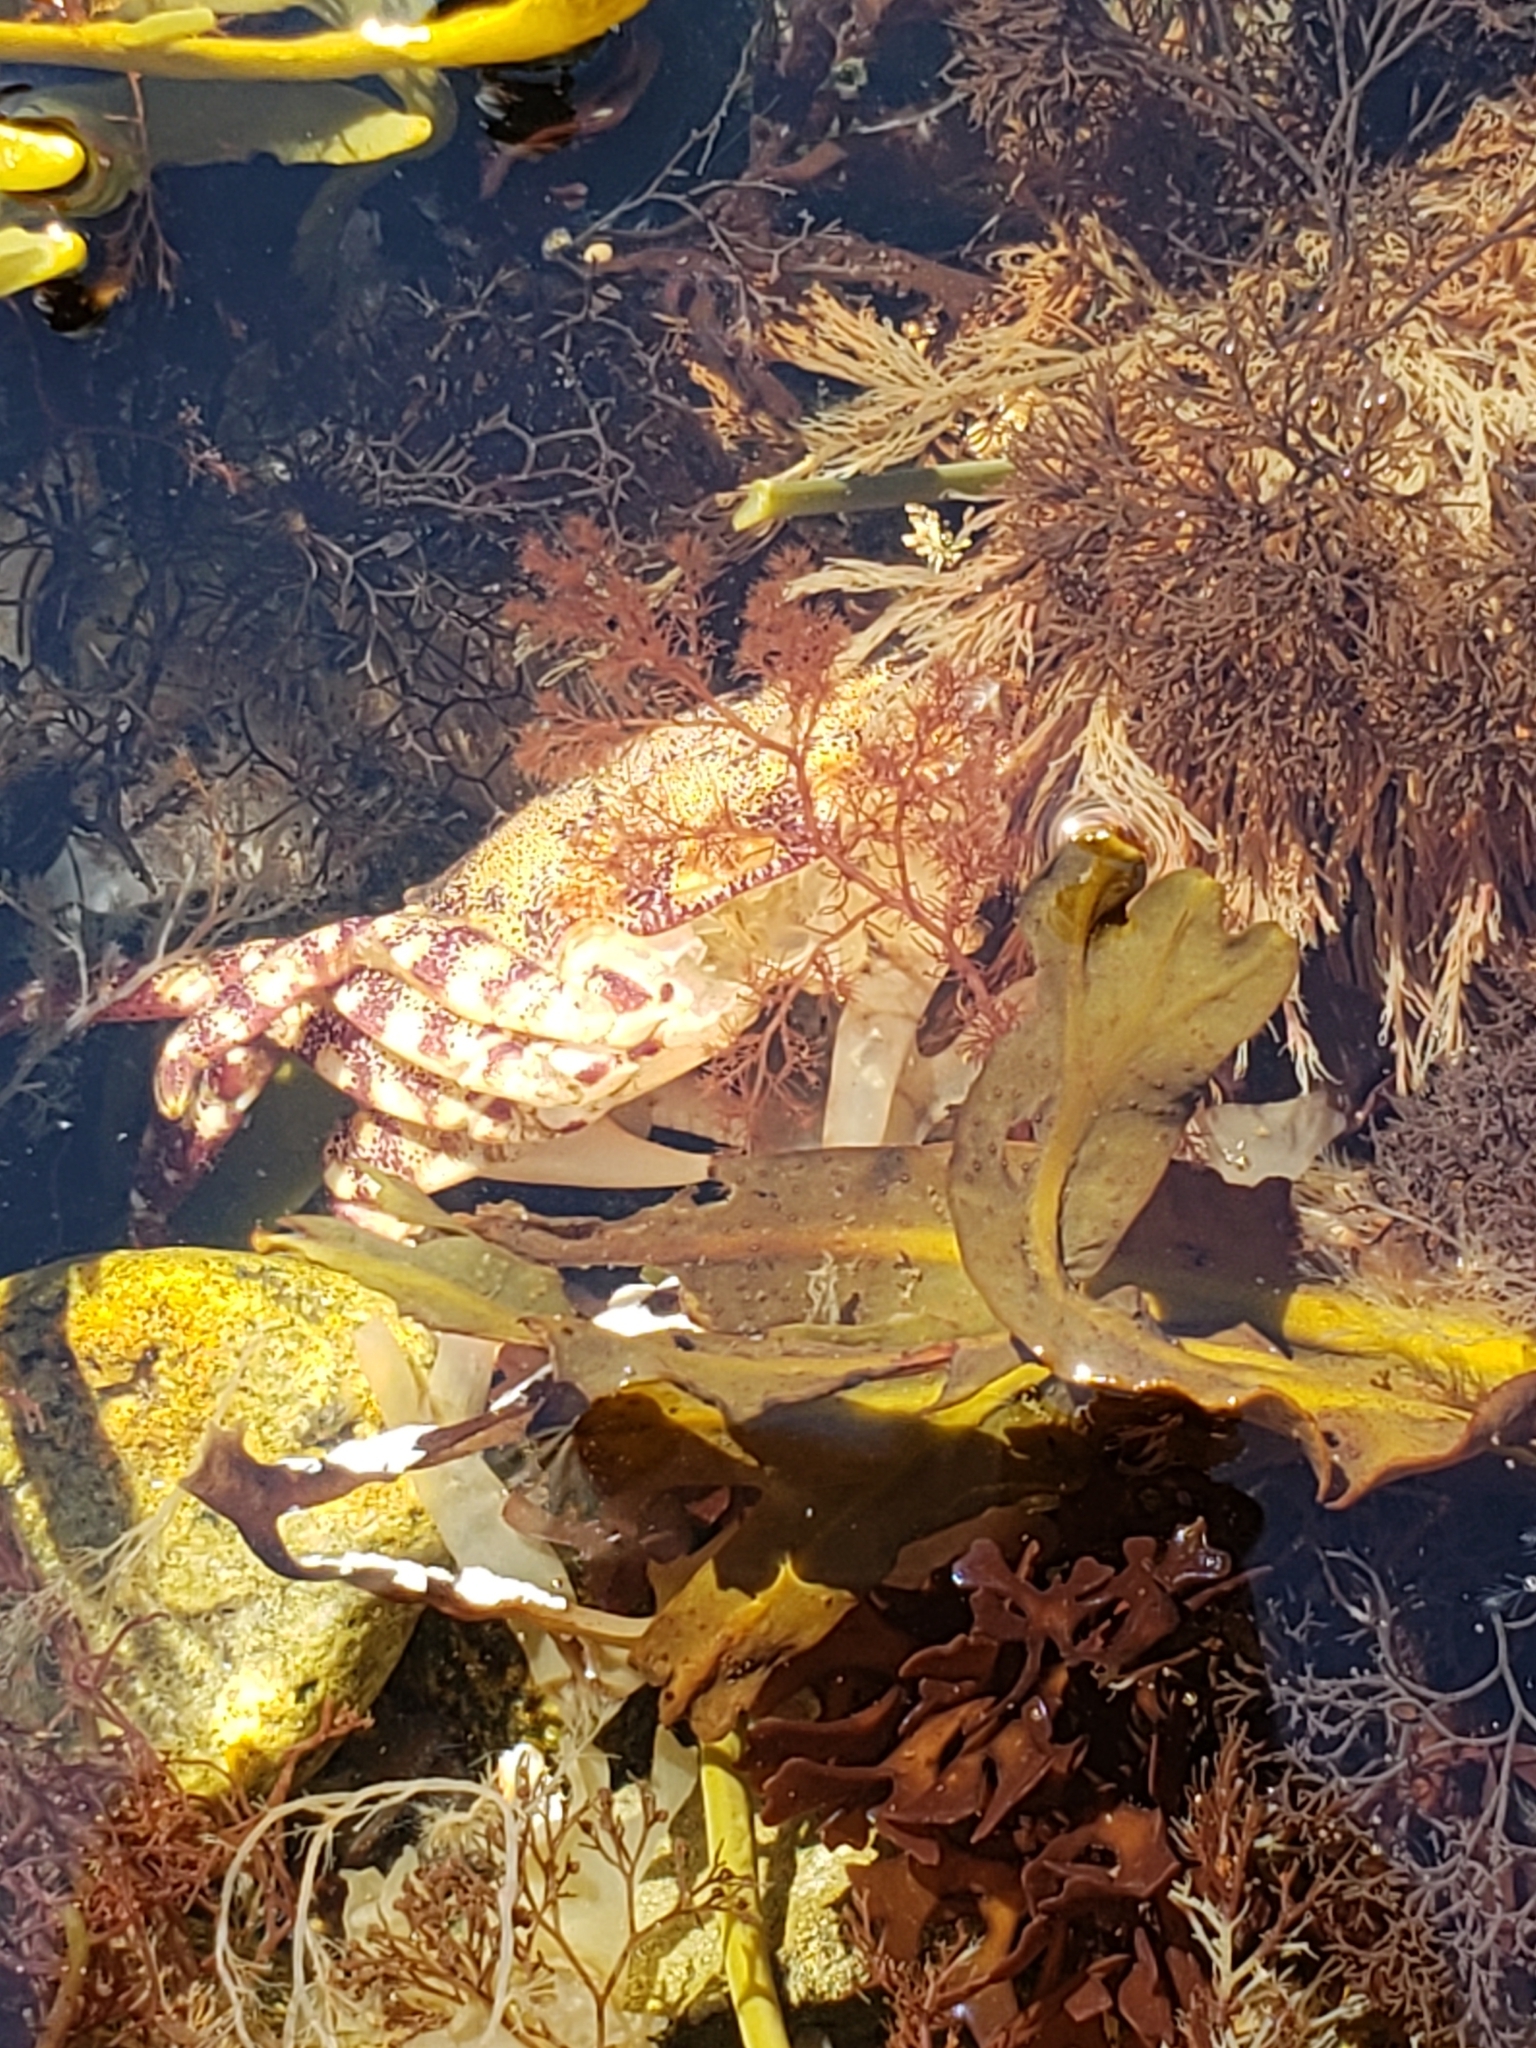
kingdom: Animalia
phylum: Arthropoda
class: Malacostraca
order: Decapoda
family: Varunidae
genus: Hemigrapsus
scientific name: Hemigrapsus sanguineus
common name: Asian shore crab
